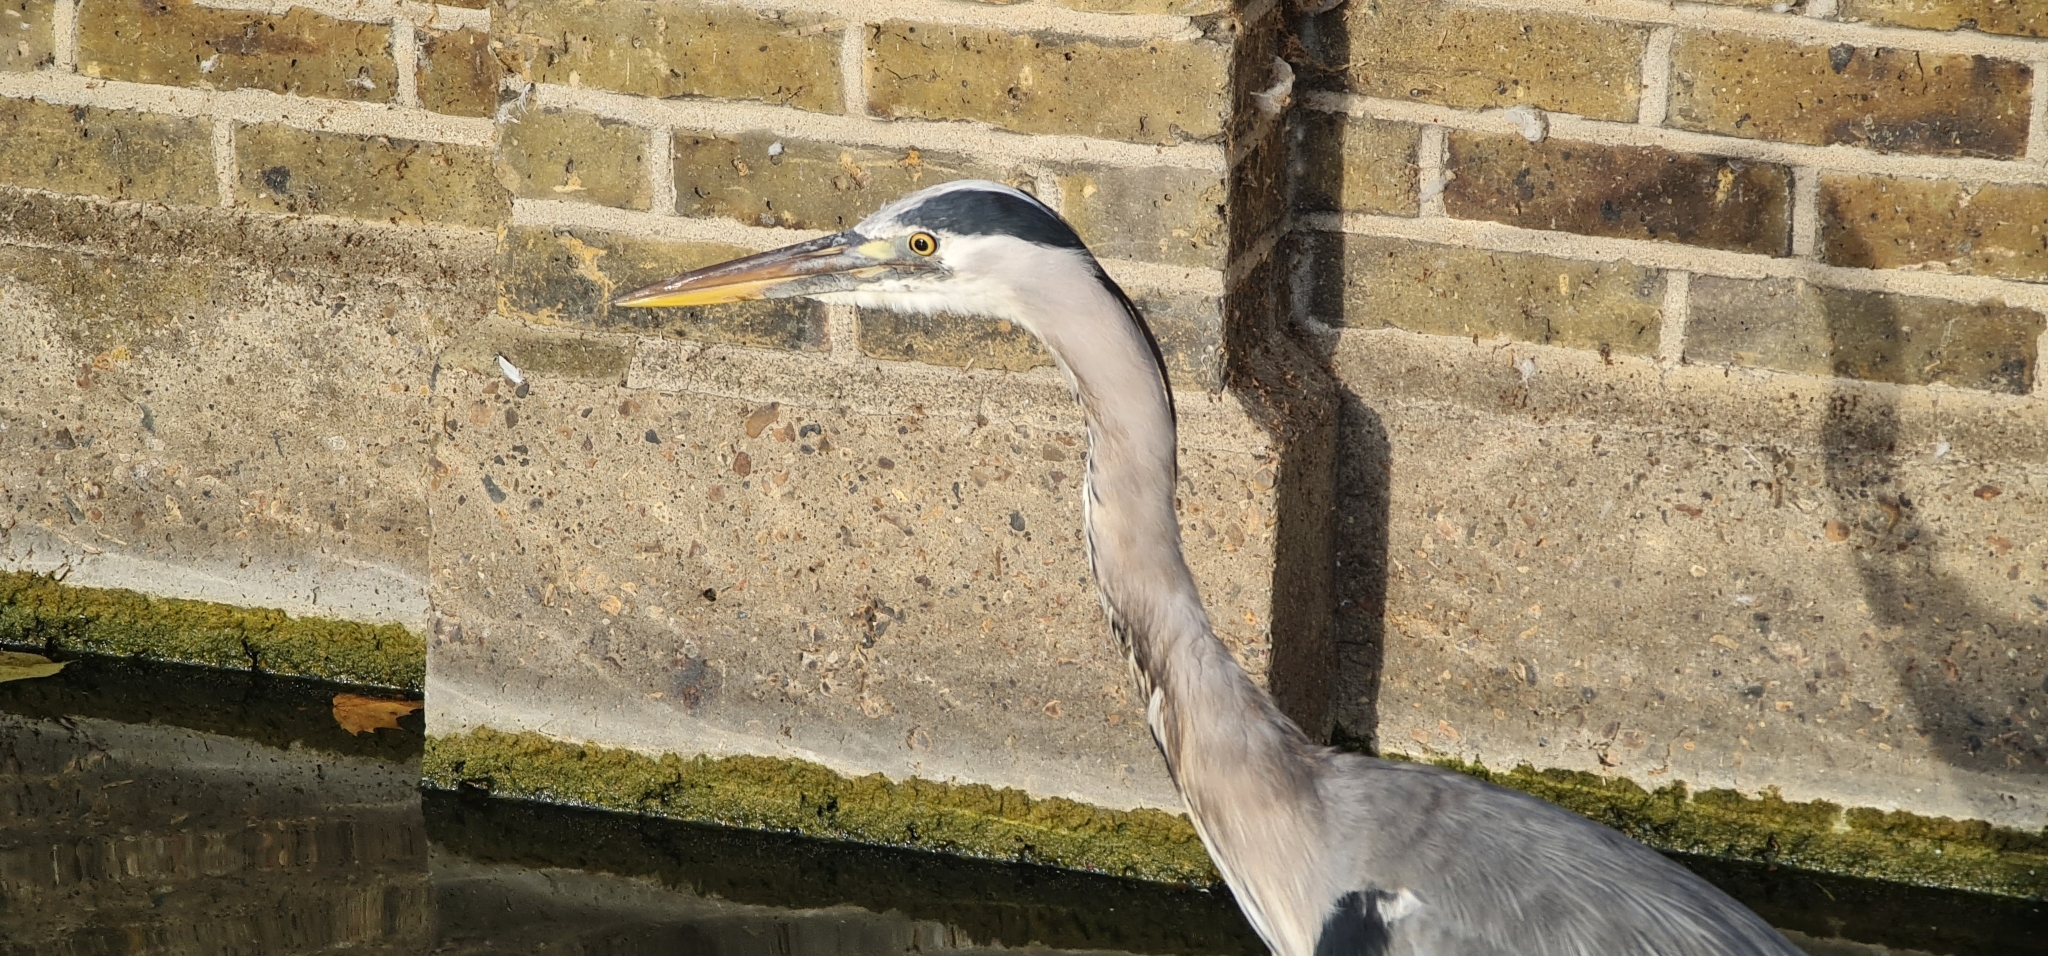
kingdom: Animalia
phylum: Chordata
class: Aves
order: Pelecaniformes
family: Ardeidae
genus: Ardea
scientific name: Ardea cinerea
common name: Grey heron
